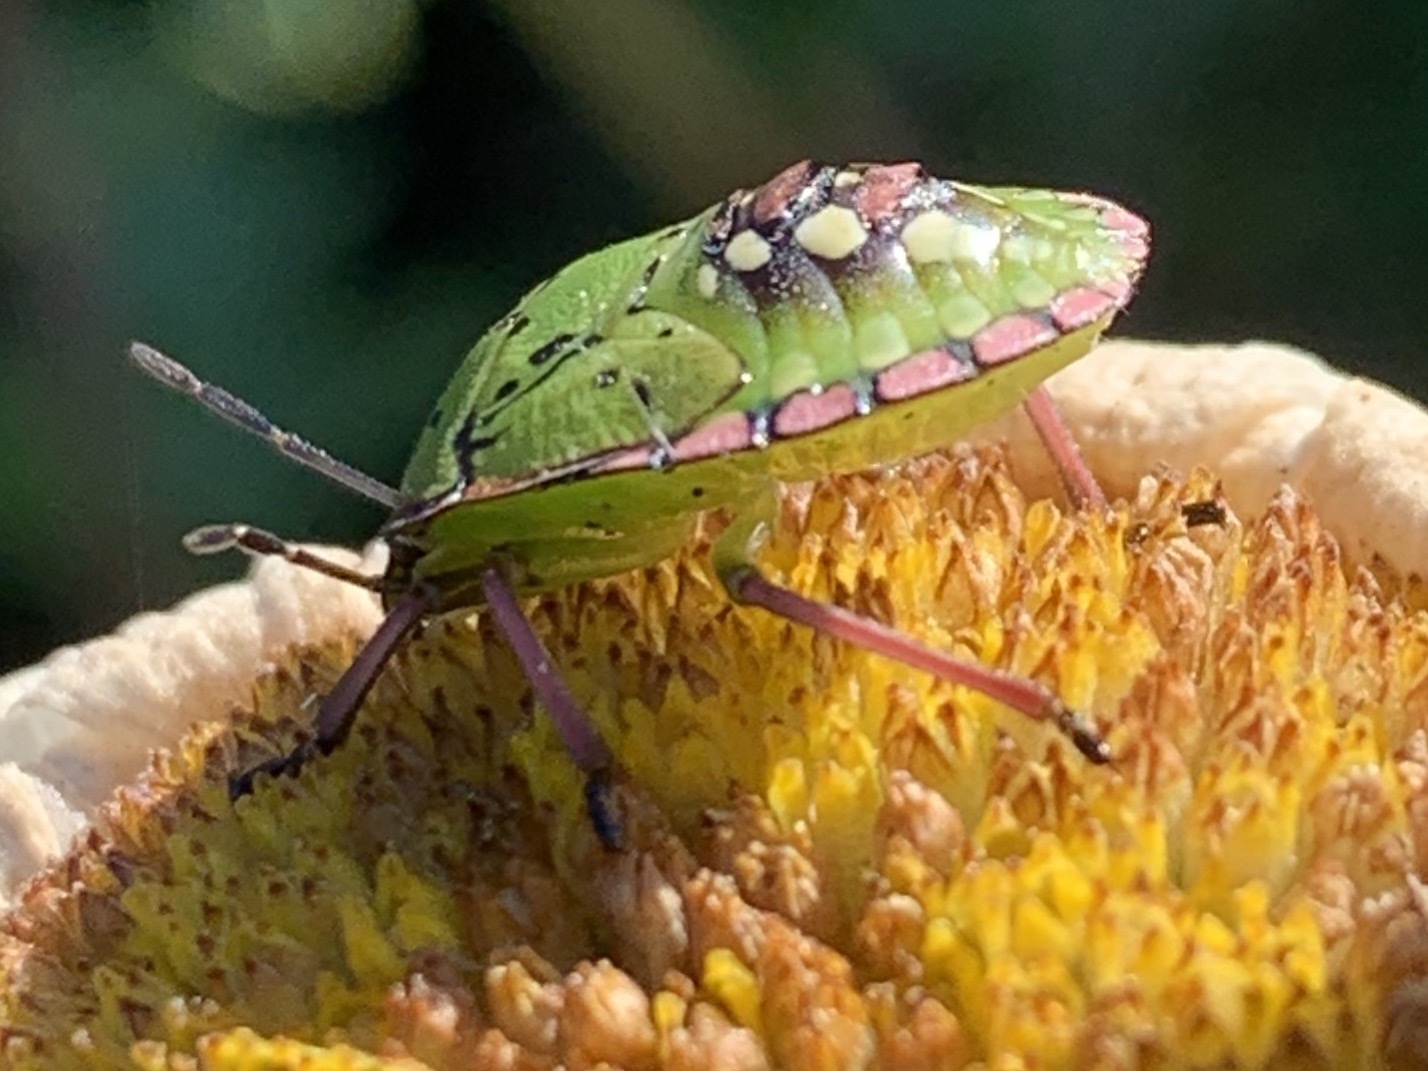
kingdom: Animalia
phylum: Arthropoda
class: Insecta
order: Hemiptera
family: Pentatomidae
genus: Nezara
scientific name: Nezara viridula
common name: Southern green stink bug
